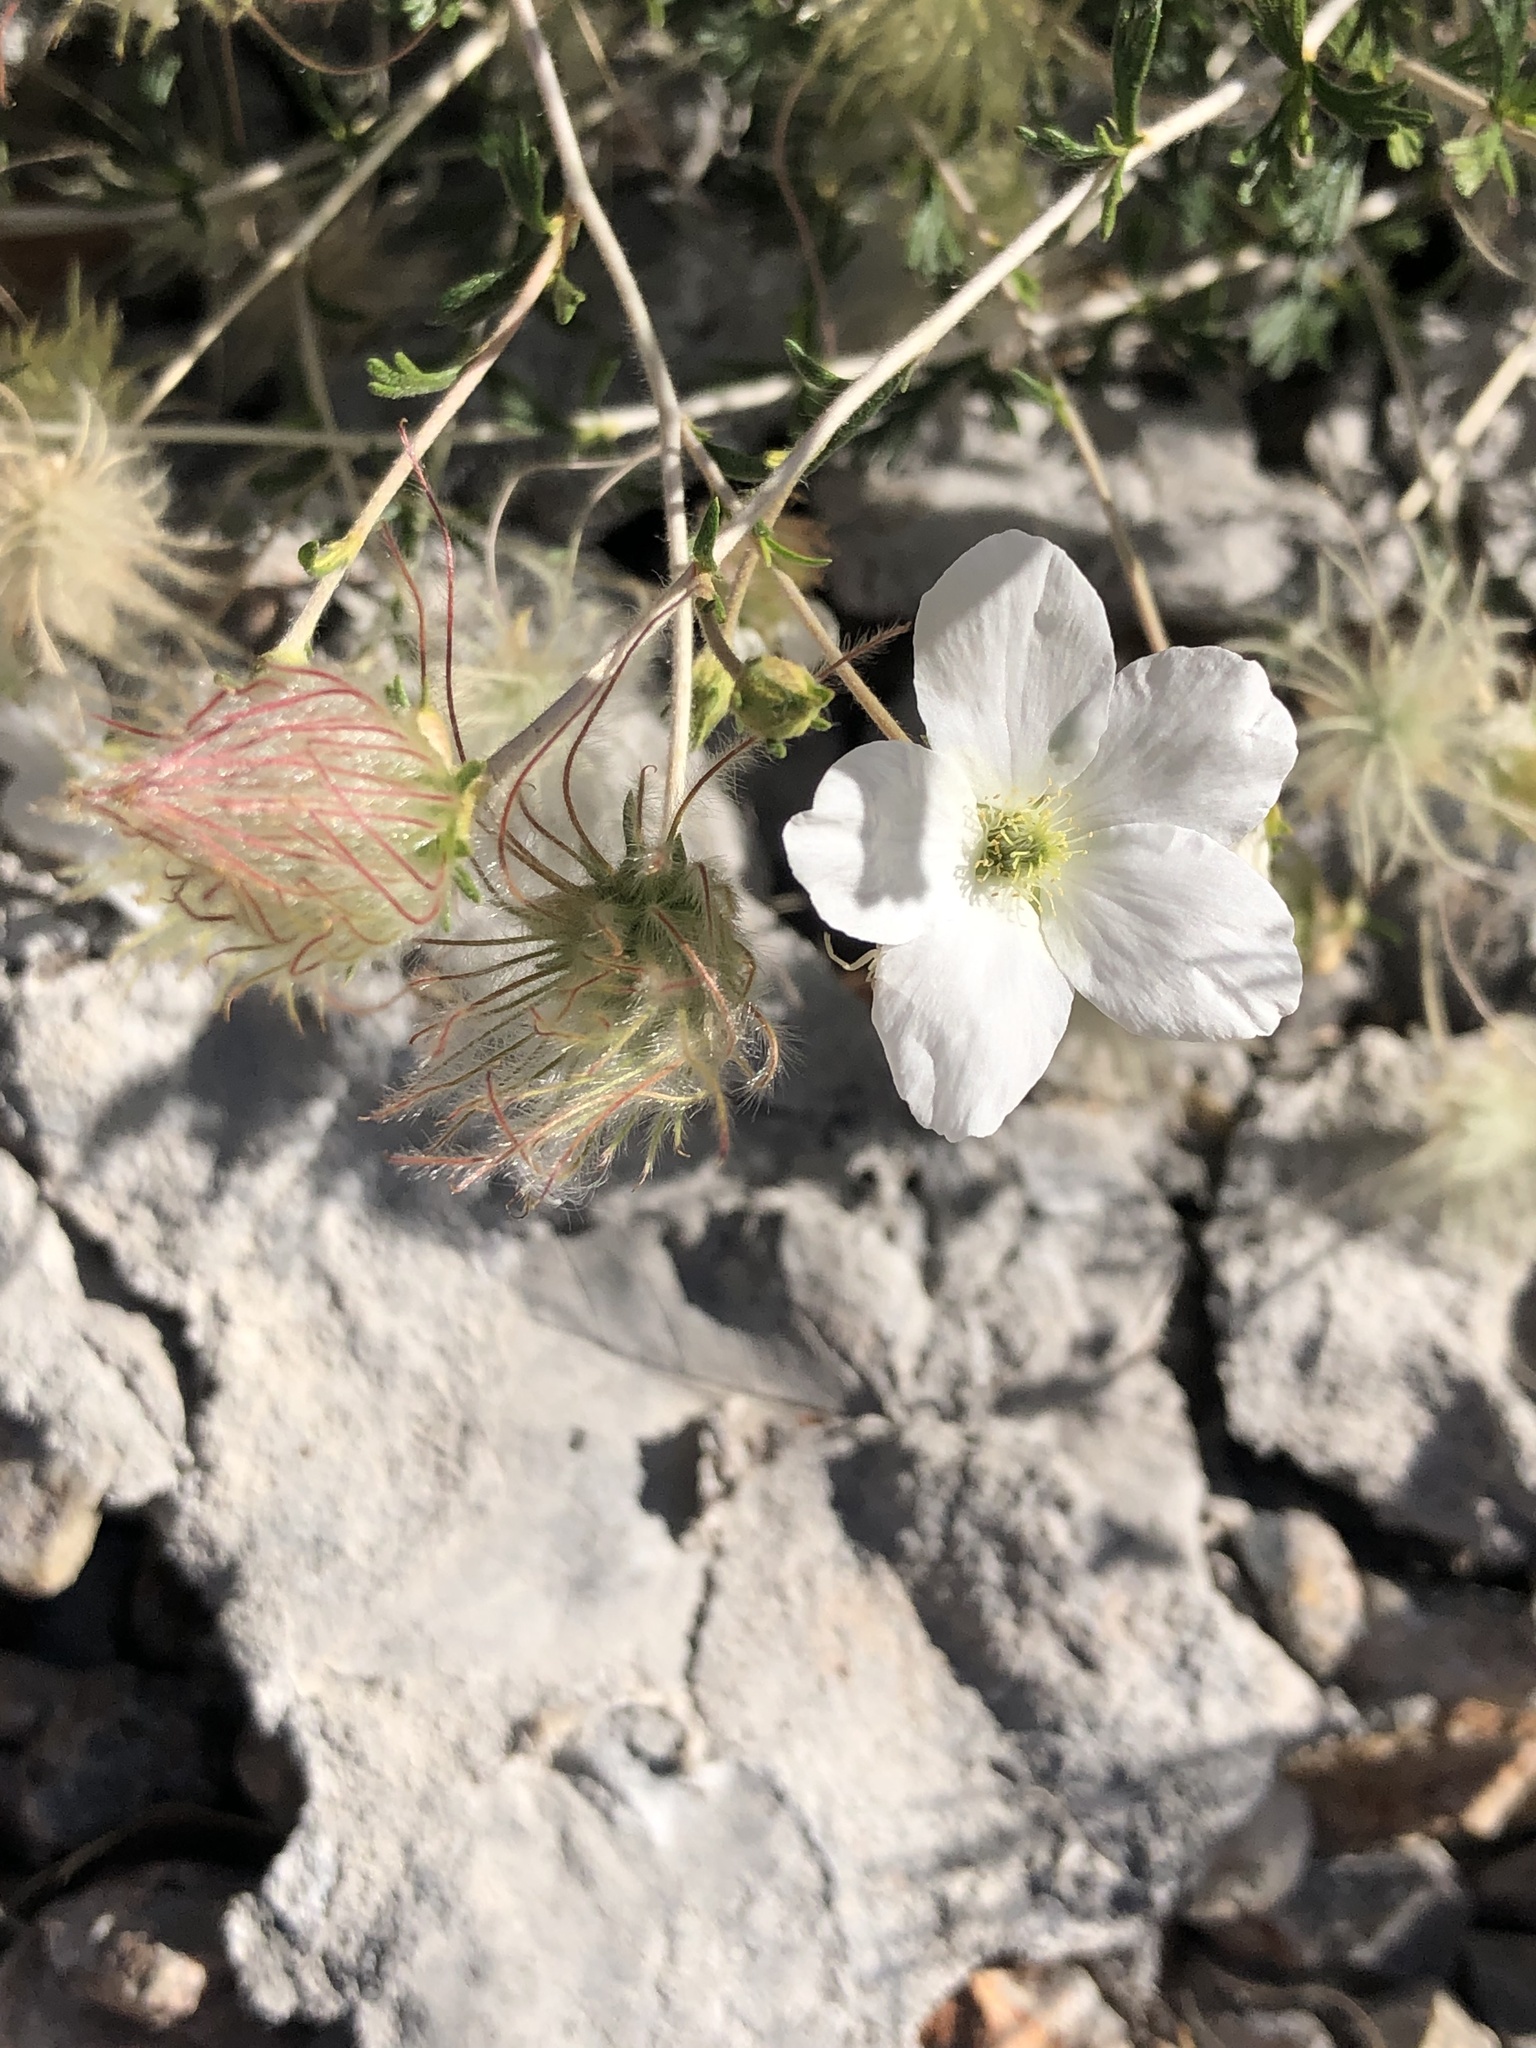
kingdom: Plantae
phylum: Tracheophyta
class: Magnoliopsida
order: Rosales
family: Rosaceae
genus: Fallugia
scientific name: Fallugia paradoxa
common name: Apache-plume
